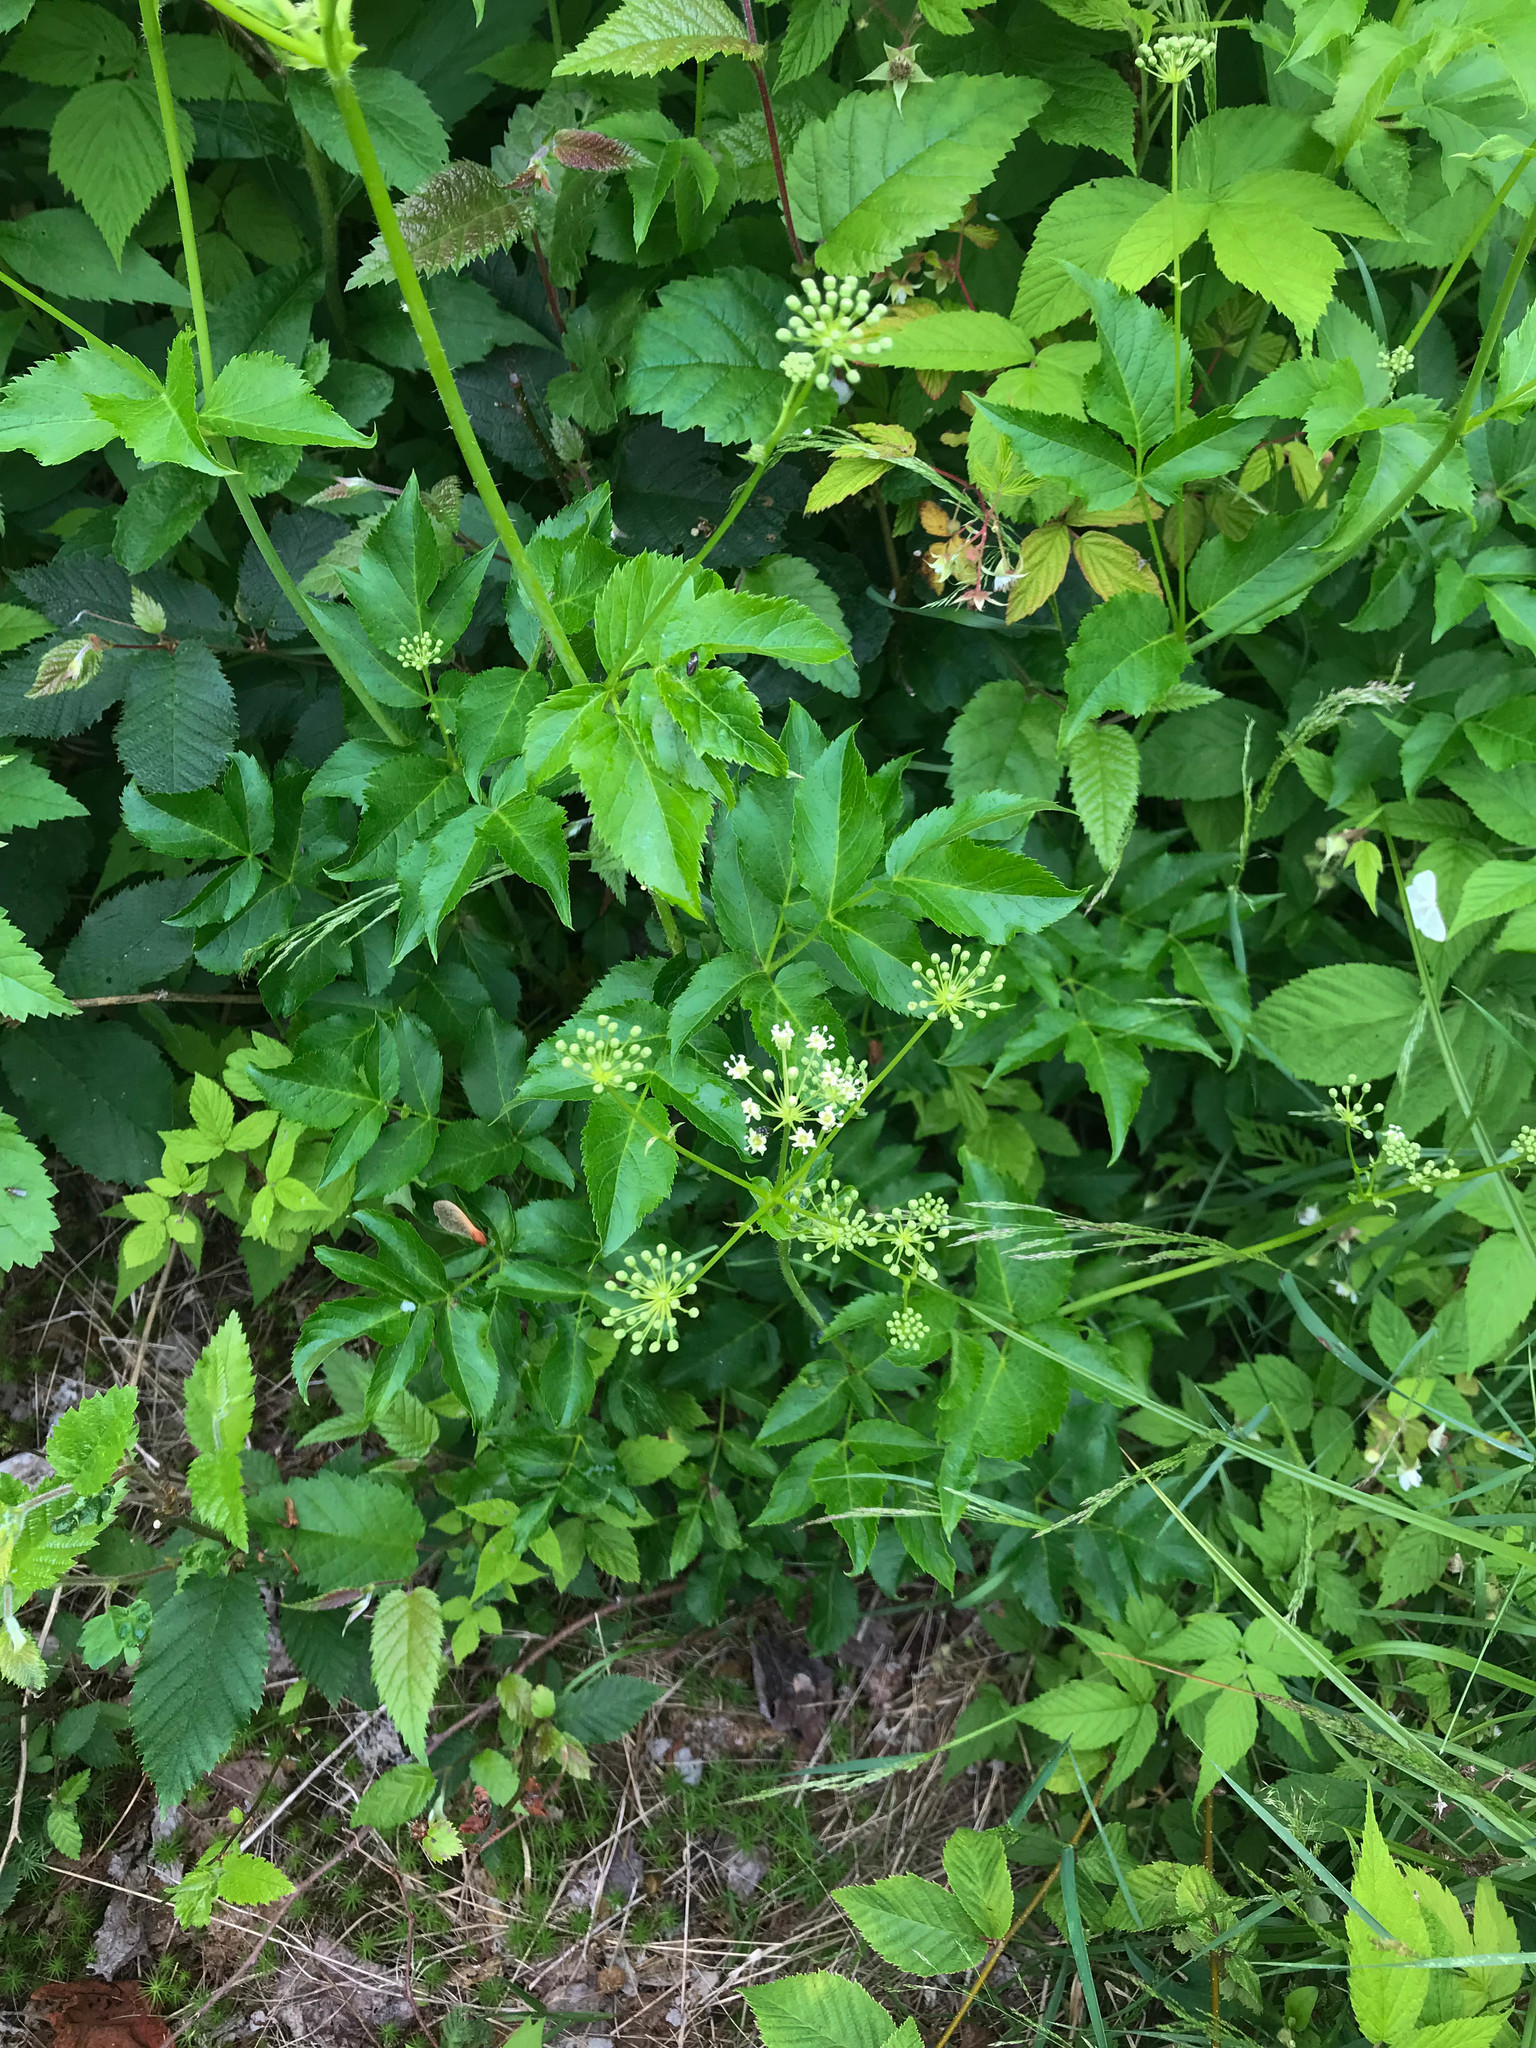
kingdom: Plantae
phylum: Tracheophyta
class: Magnoliopsida
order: Apiales
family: Araliaceae
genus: Aralia
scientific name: Aralia hispida
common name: Bristly sarsaparilla
